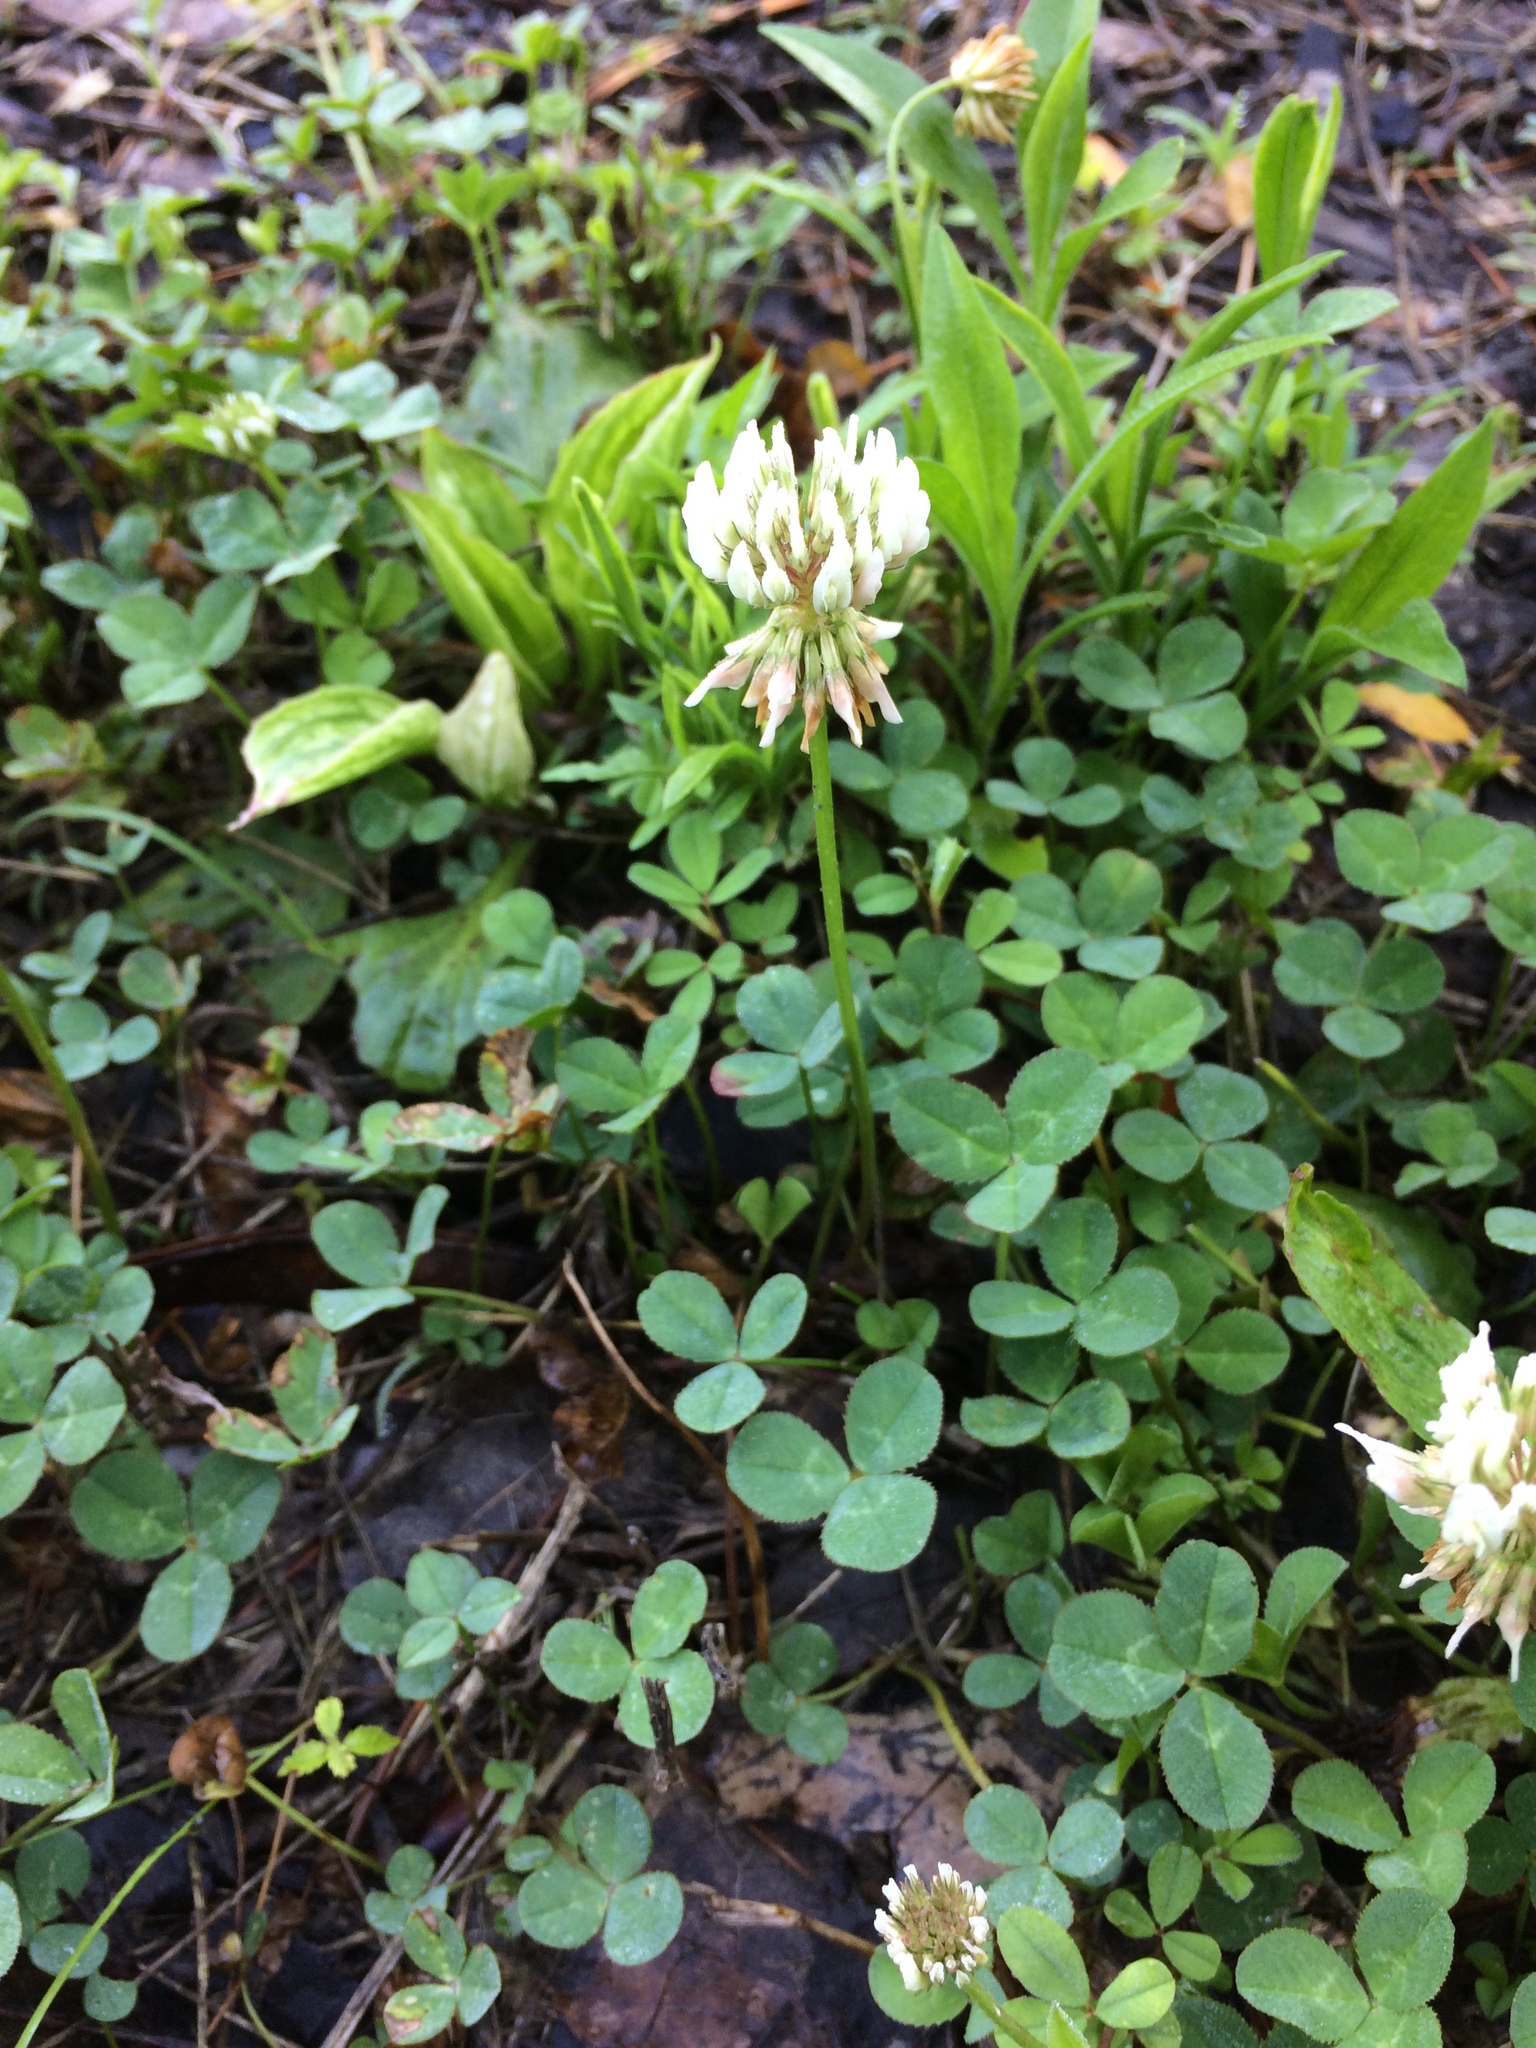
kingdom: Plantae
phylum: Tracheophyta
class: Magnoliopsida
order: Fabales
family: Fabaceae
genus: Trifolium
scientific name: Trifolium repens
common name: White clover
